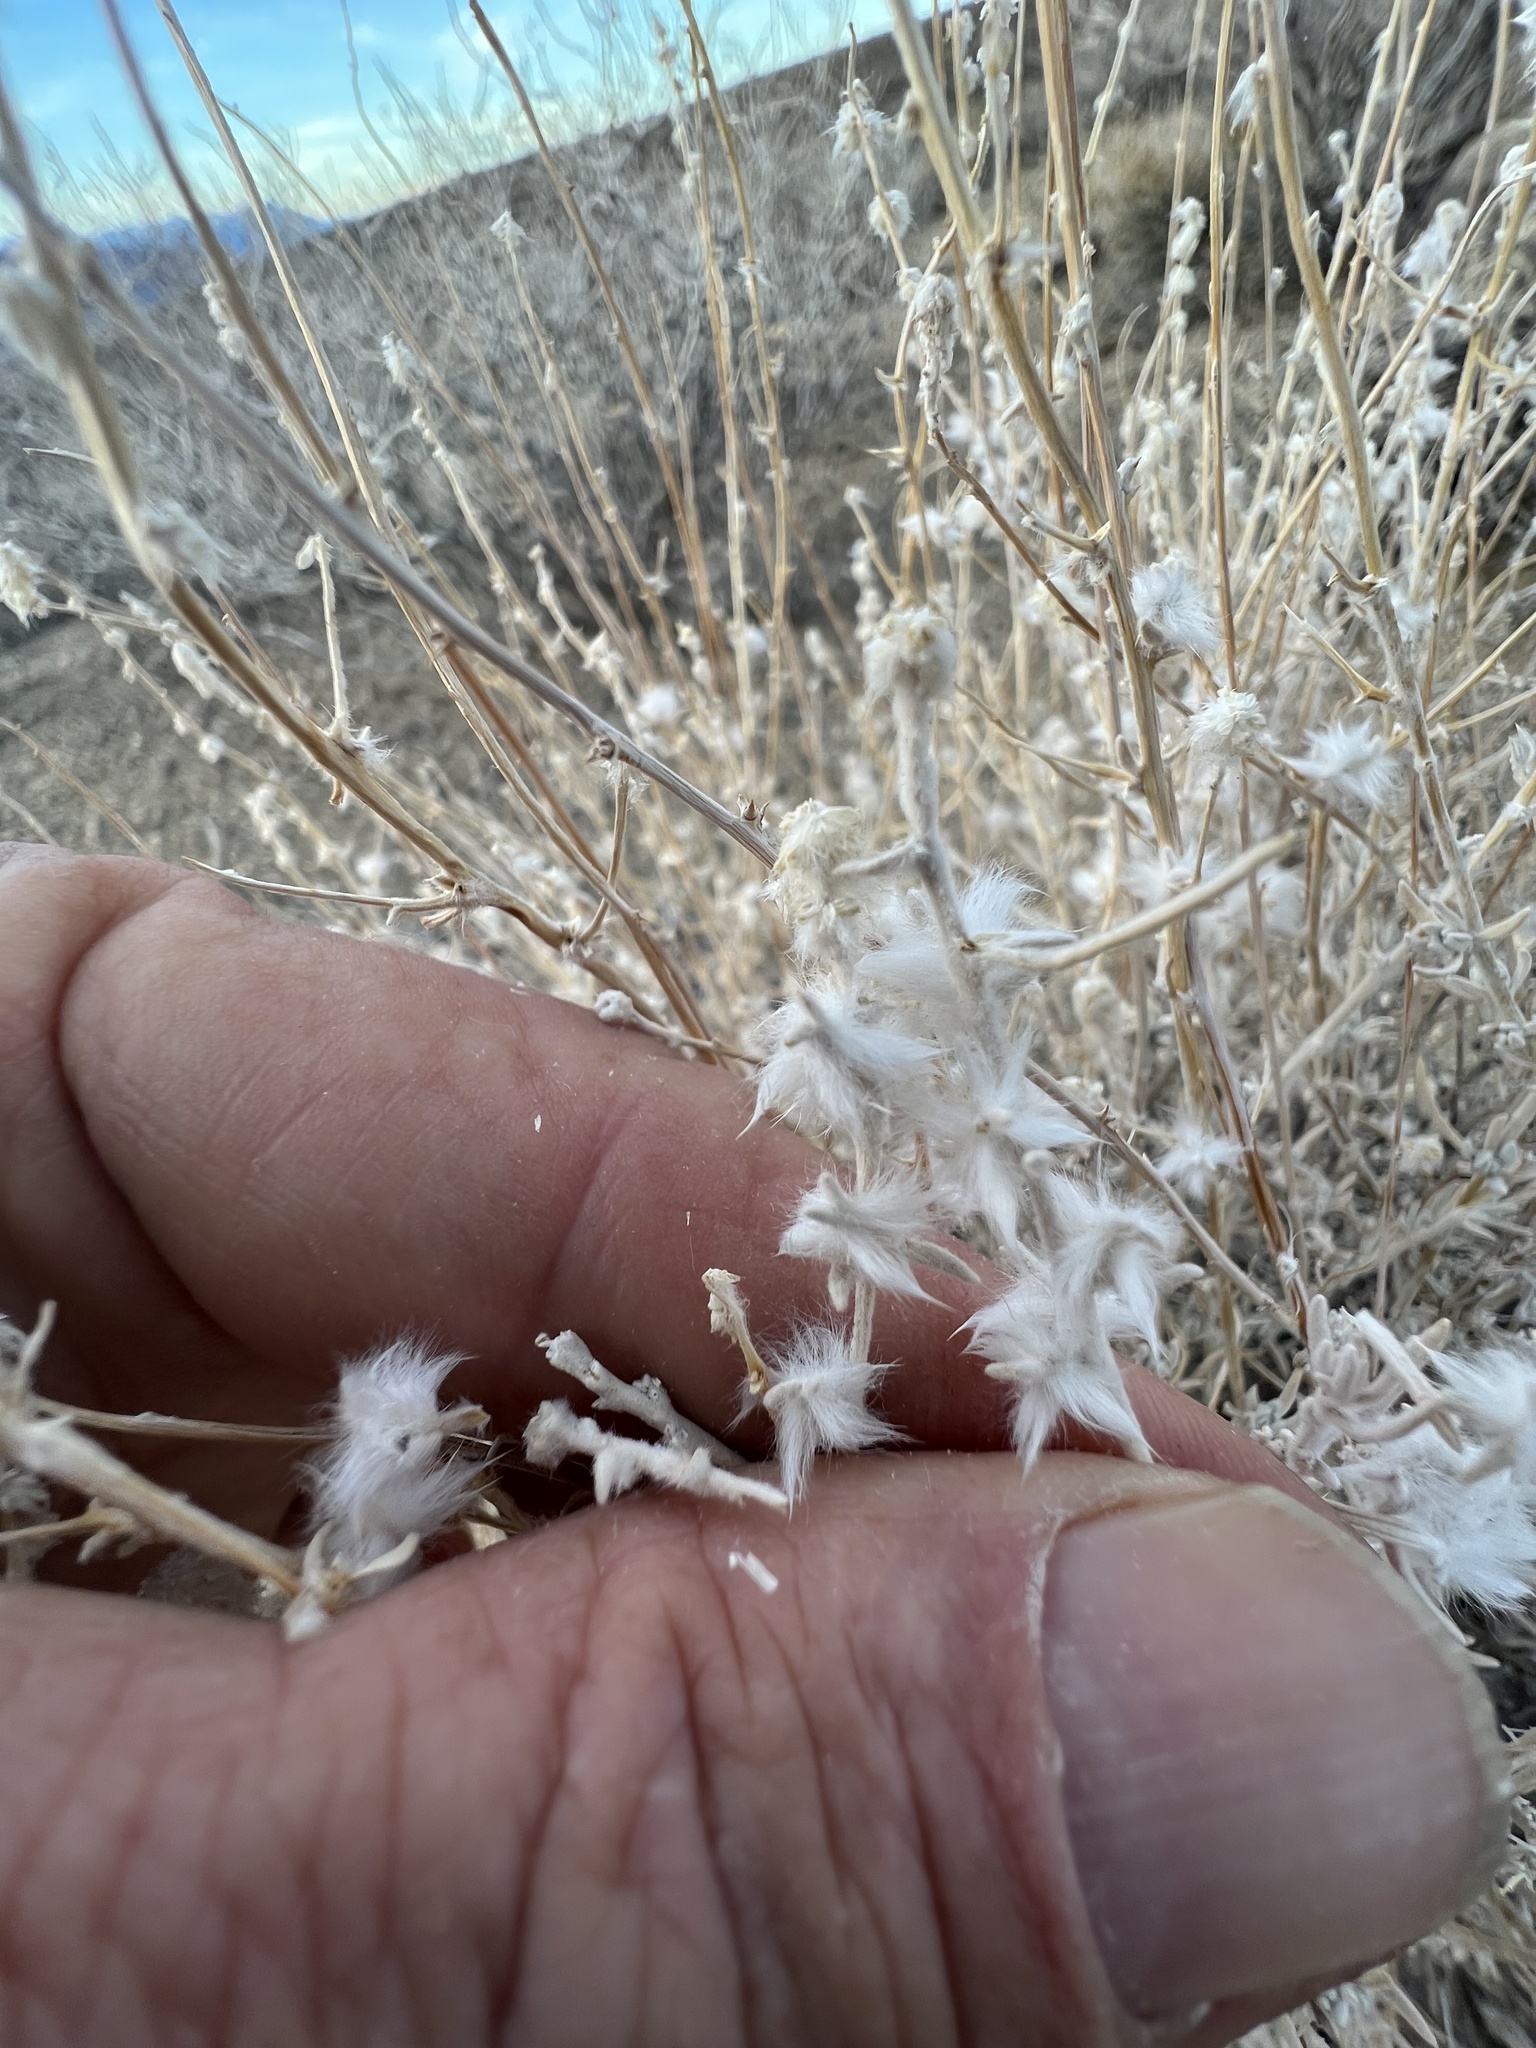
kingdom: Plantae
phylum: Tracheophyta
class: Magnoliopsida
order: Caryophyllales
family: Amaranthaceae
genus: Krascheninnikovia
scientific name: Krascheninnikovia lanata
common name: Winterfat
